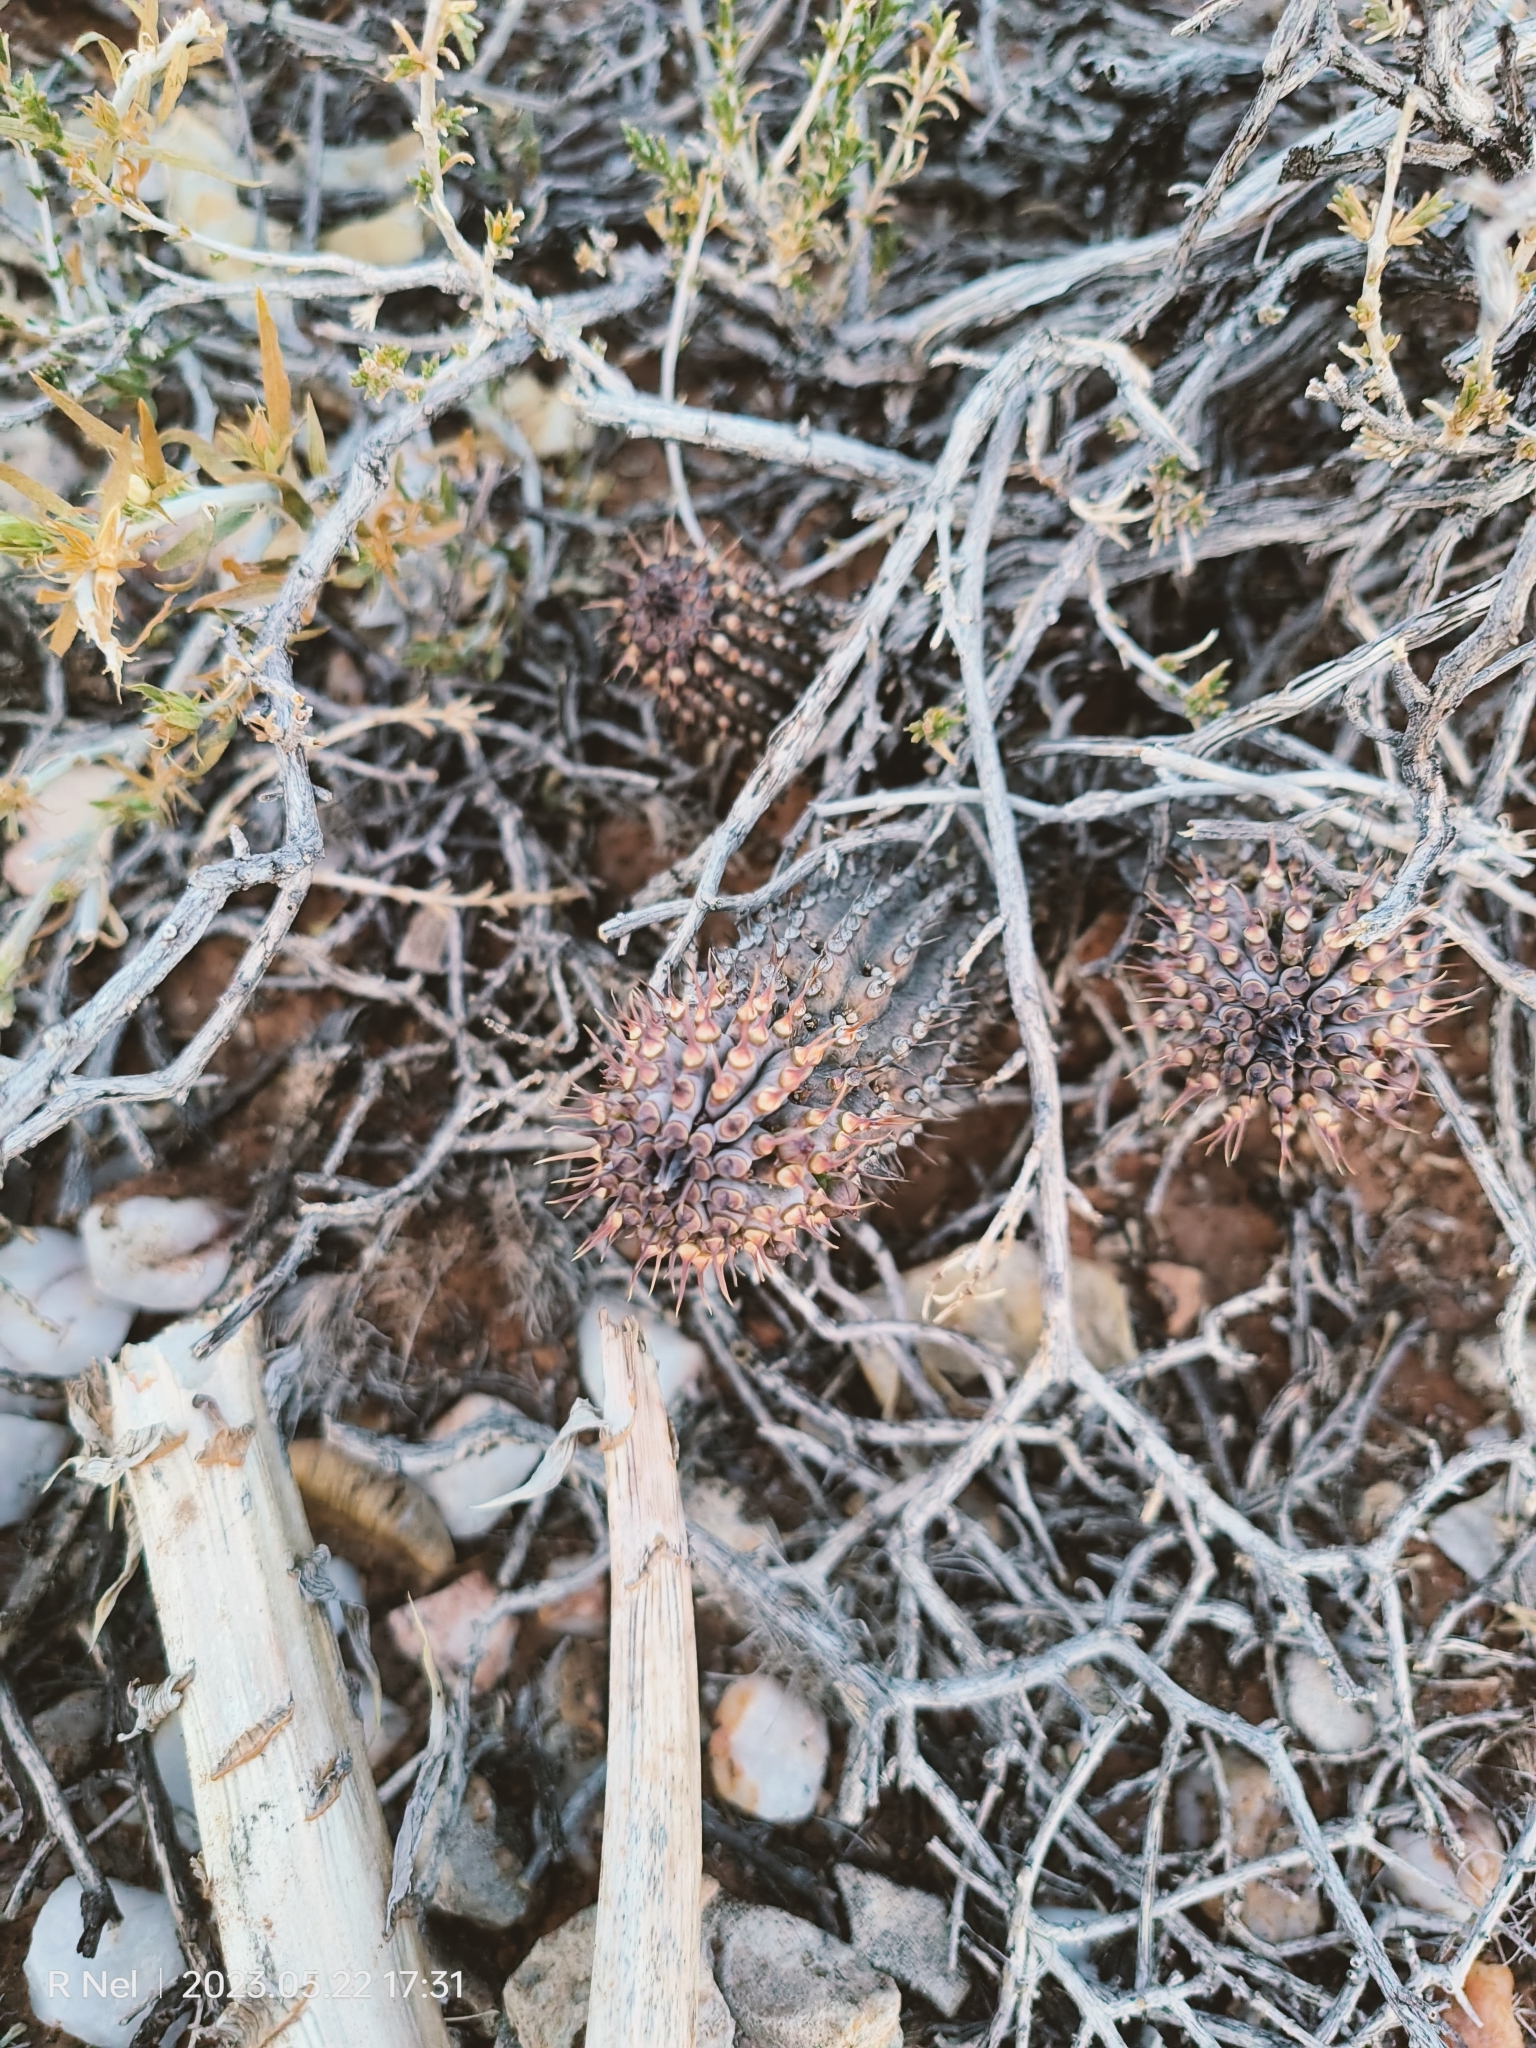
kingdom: Plantae
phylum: Tracheophyta
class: Magnoliopsida
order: Gentianales
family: Apocynaceae
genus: Ceropegia
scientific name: Ceropegia officinalis
